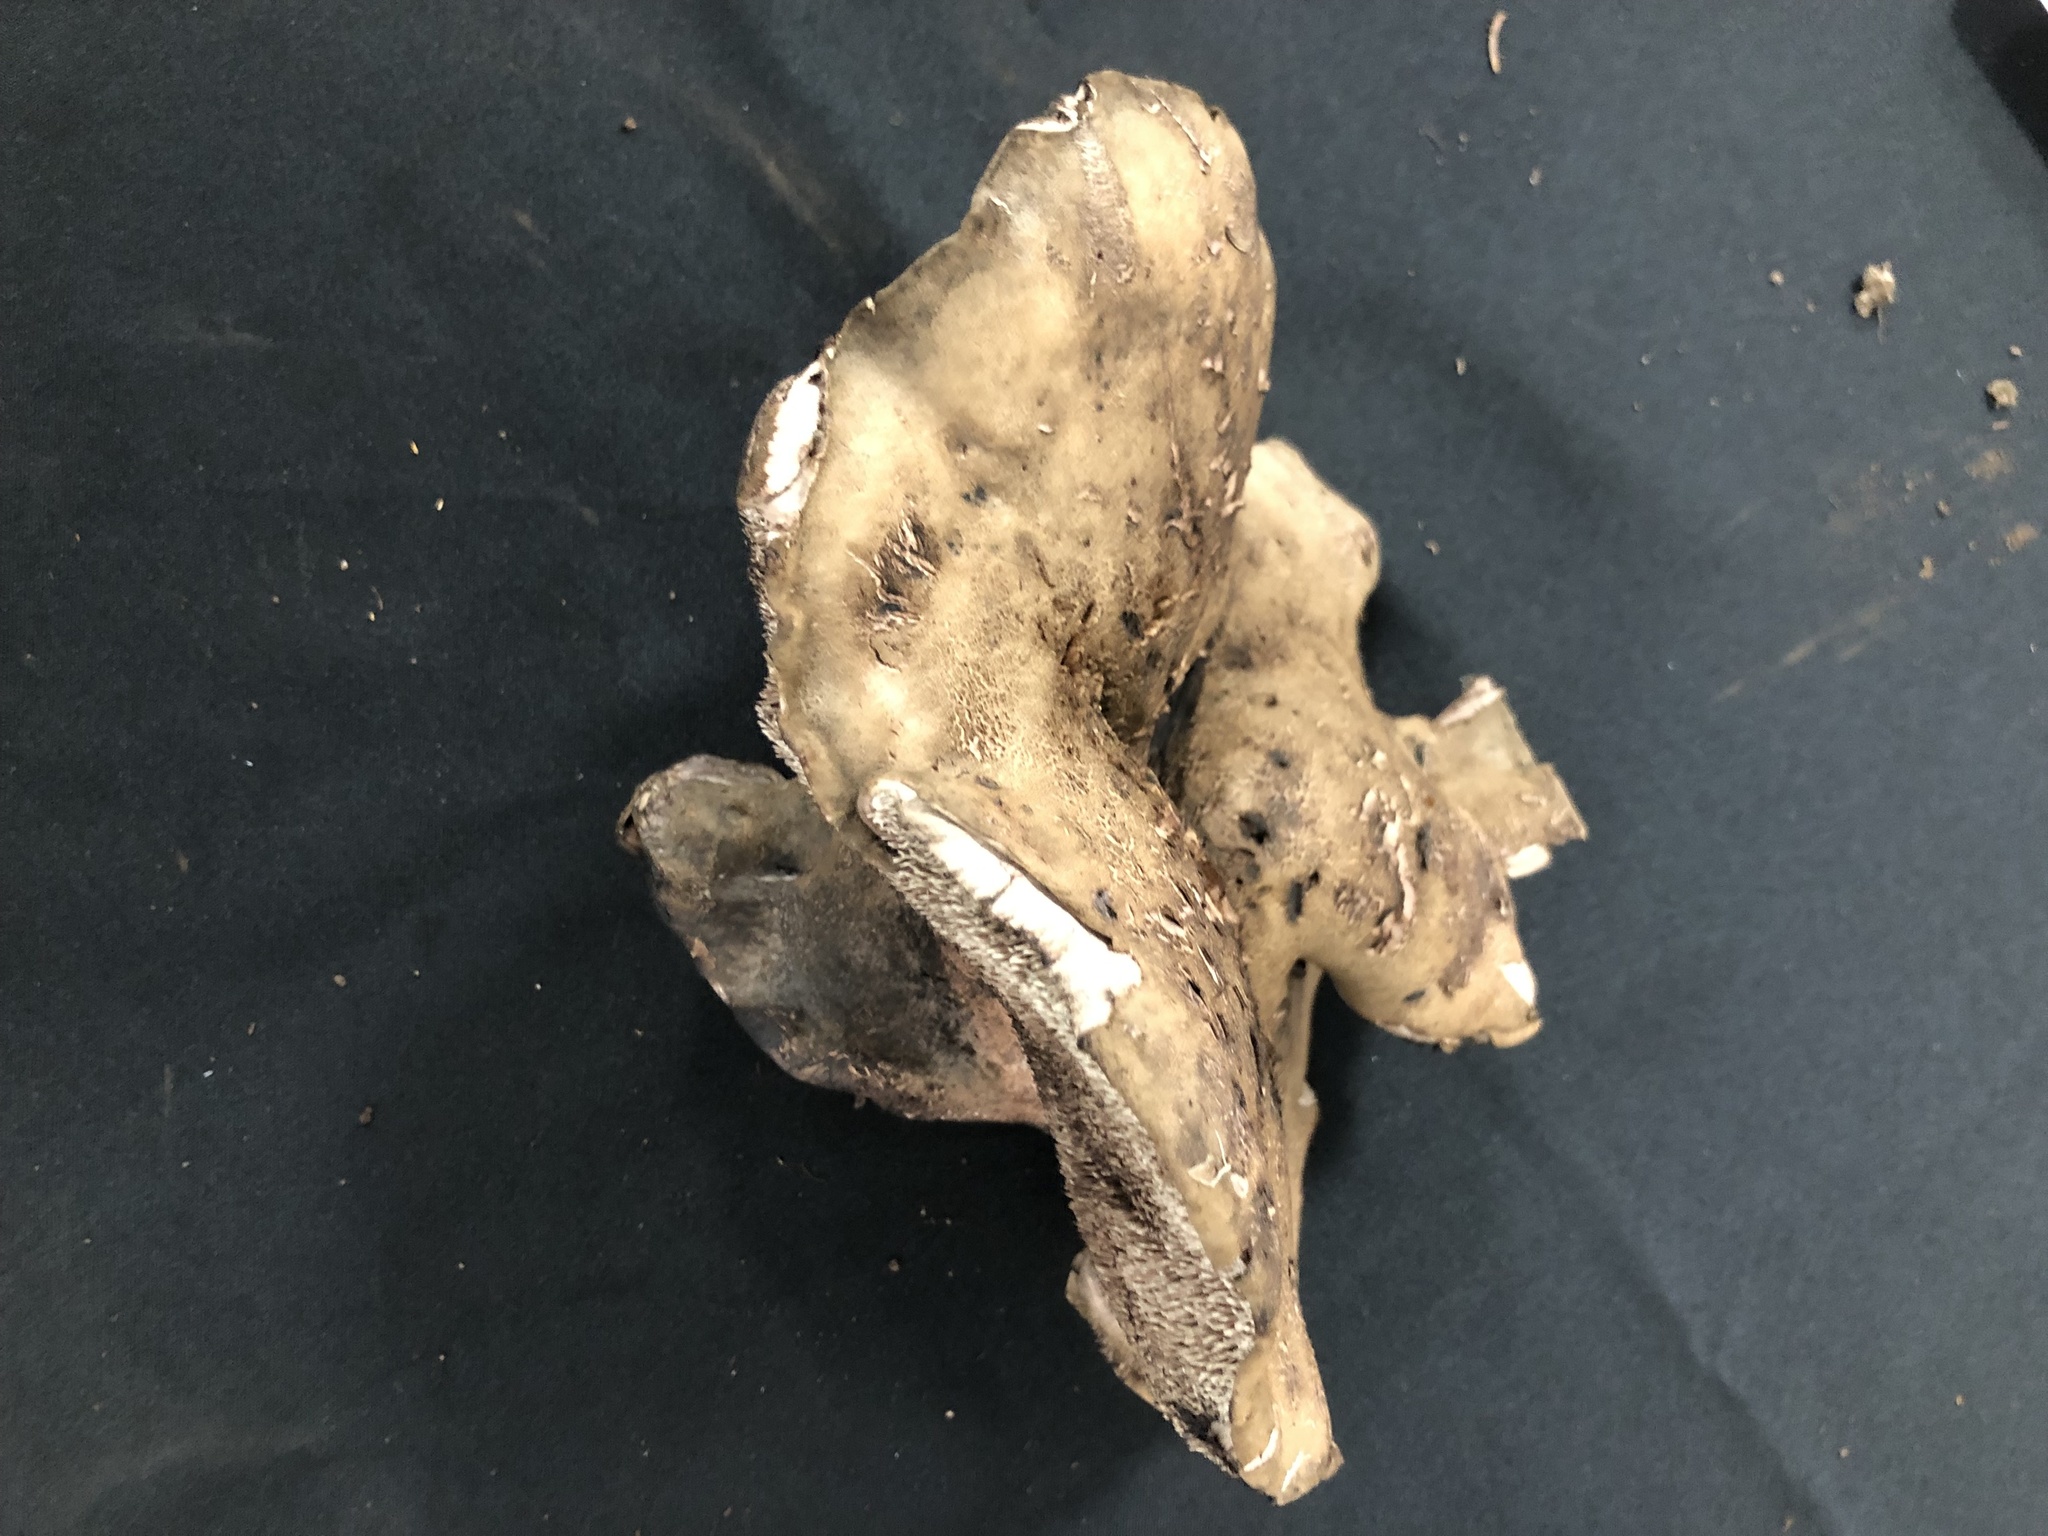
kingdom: Fungi
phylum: Basidiomycota
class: Agaricomycetes
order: Thelephorales
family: Bankeraceae
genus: Sarcodon
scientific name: Sarcodon scabripes
